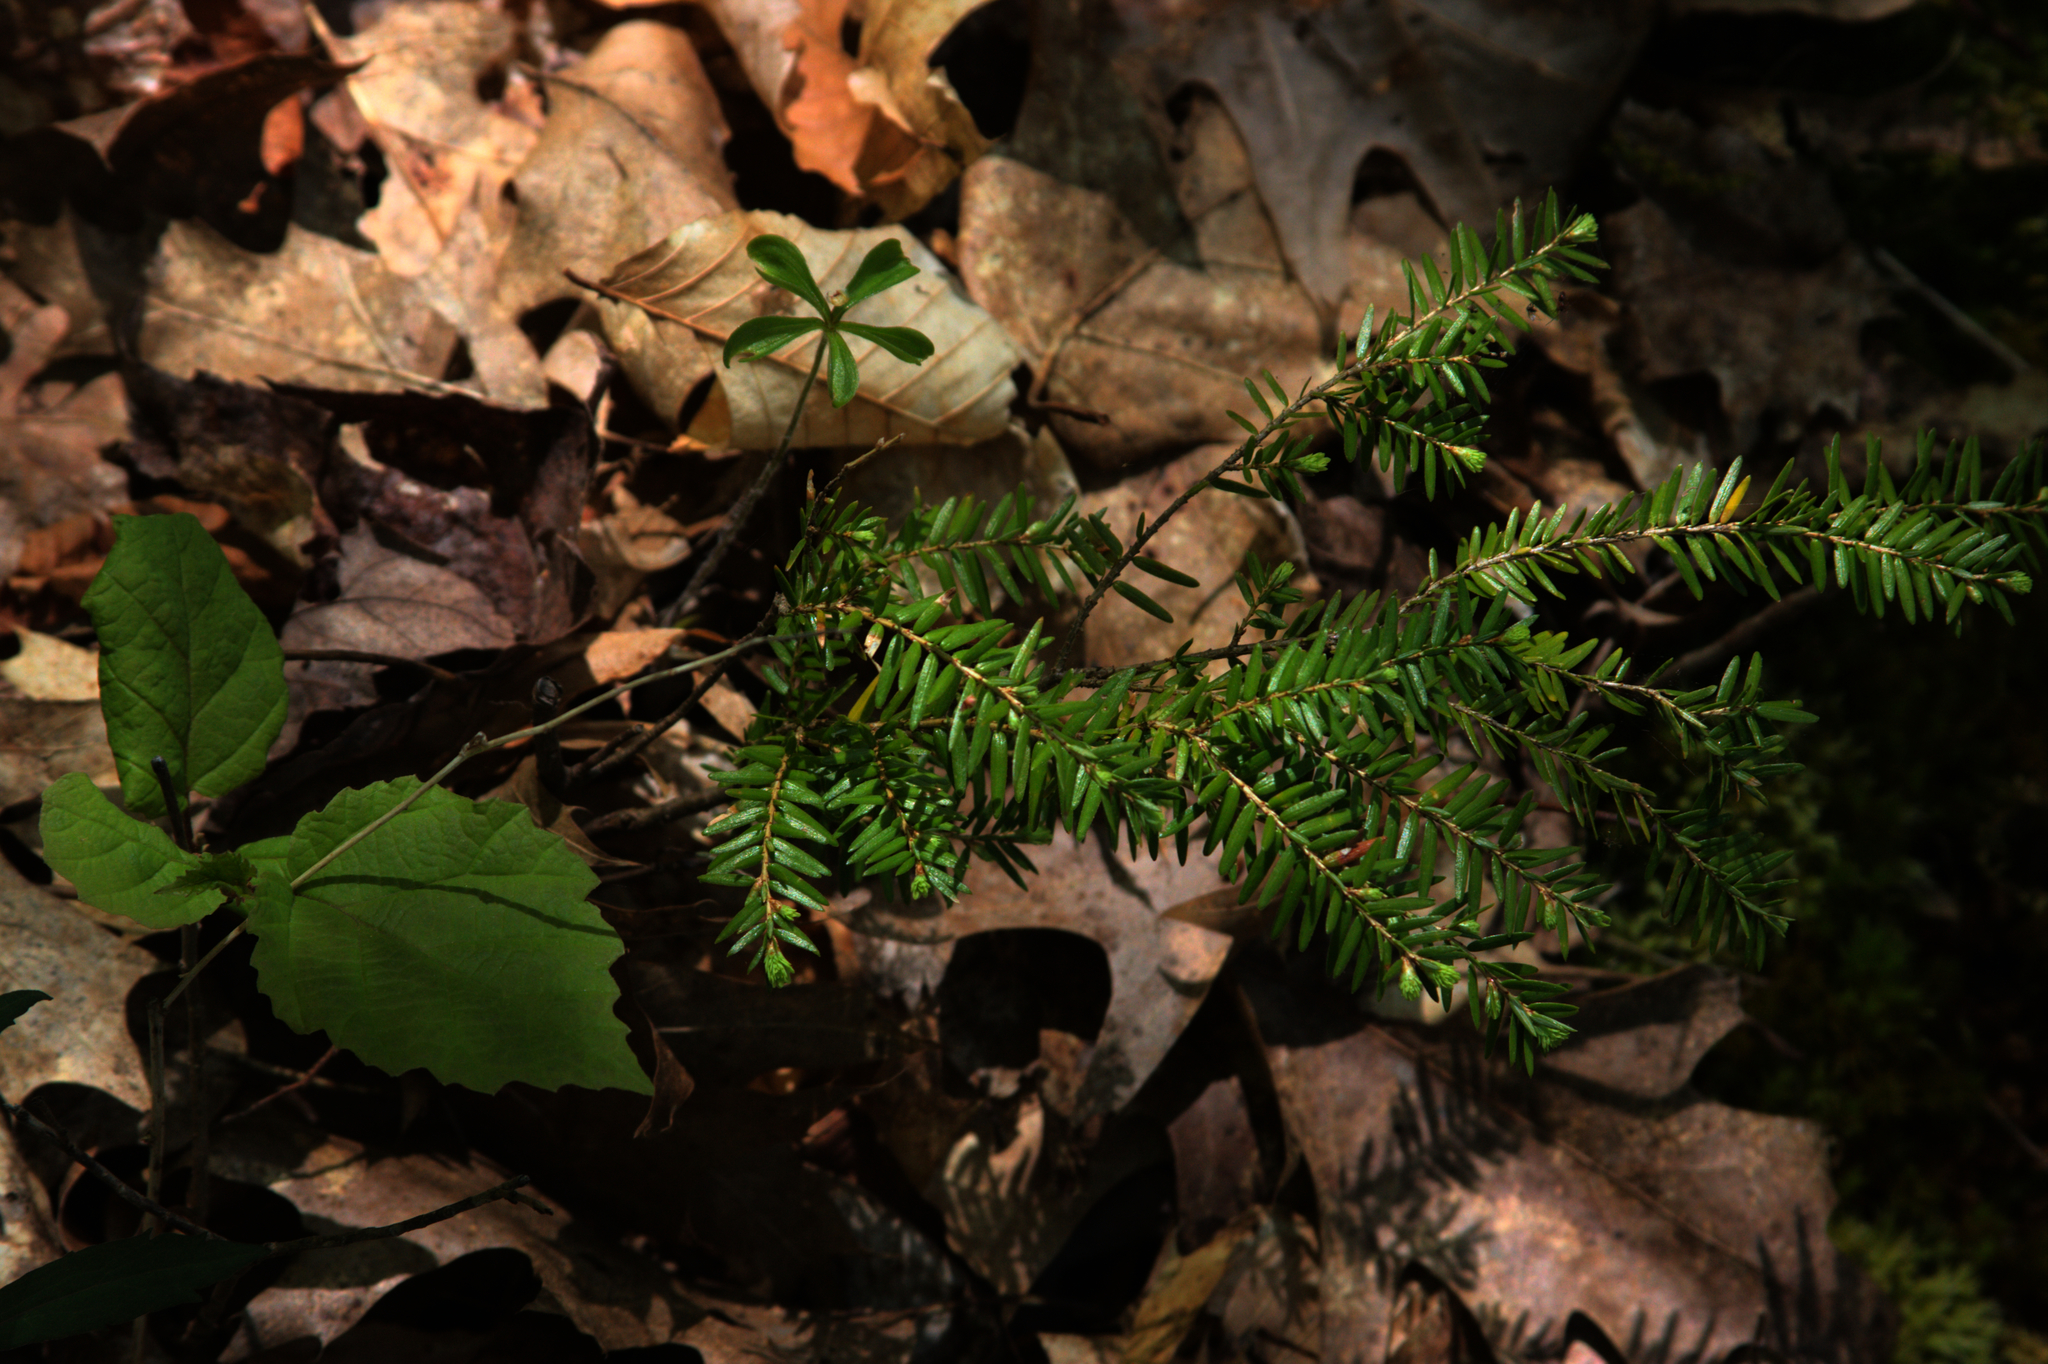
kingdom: Plantae
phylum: Tracheophyta
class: Pinopsida
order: Pinales
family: Pinaceae
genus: Tsuga
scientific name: Tsuga canadensis
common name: Eastern hemlock
